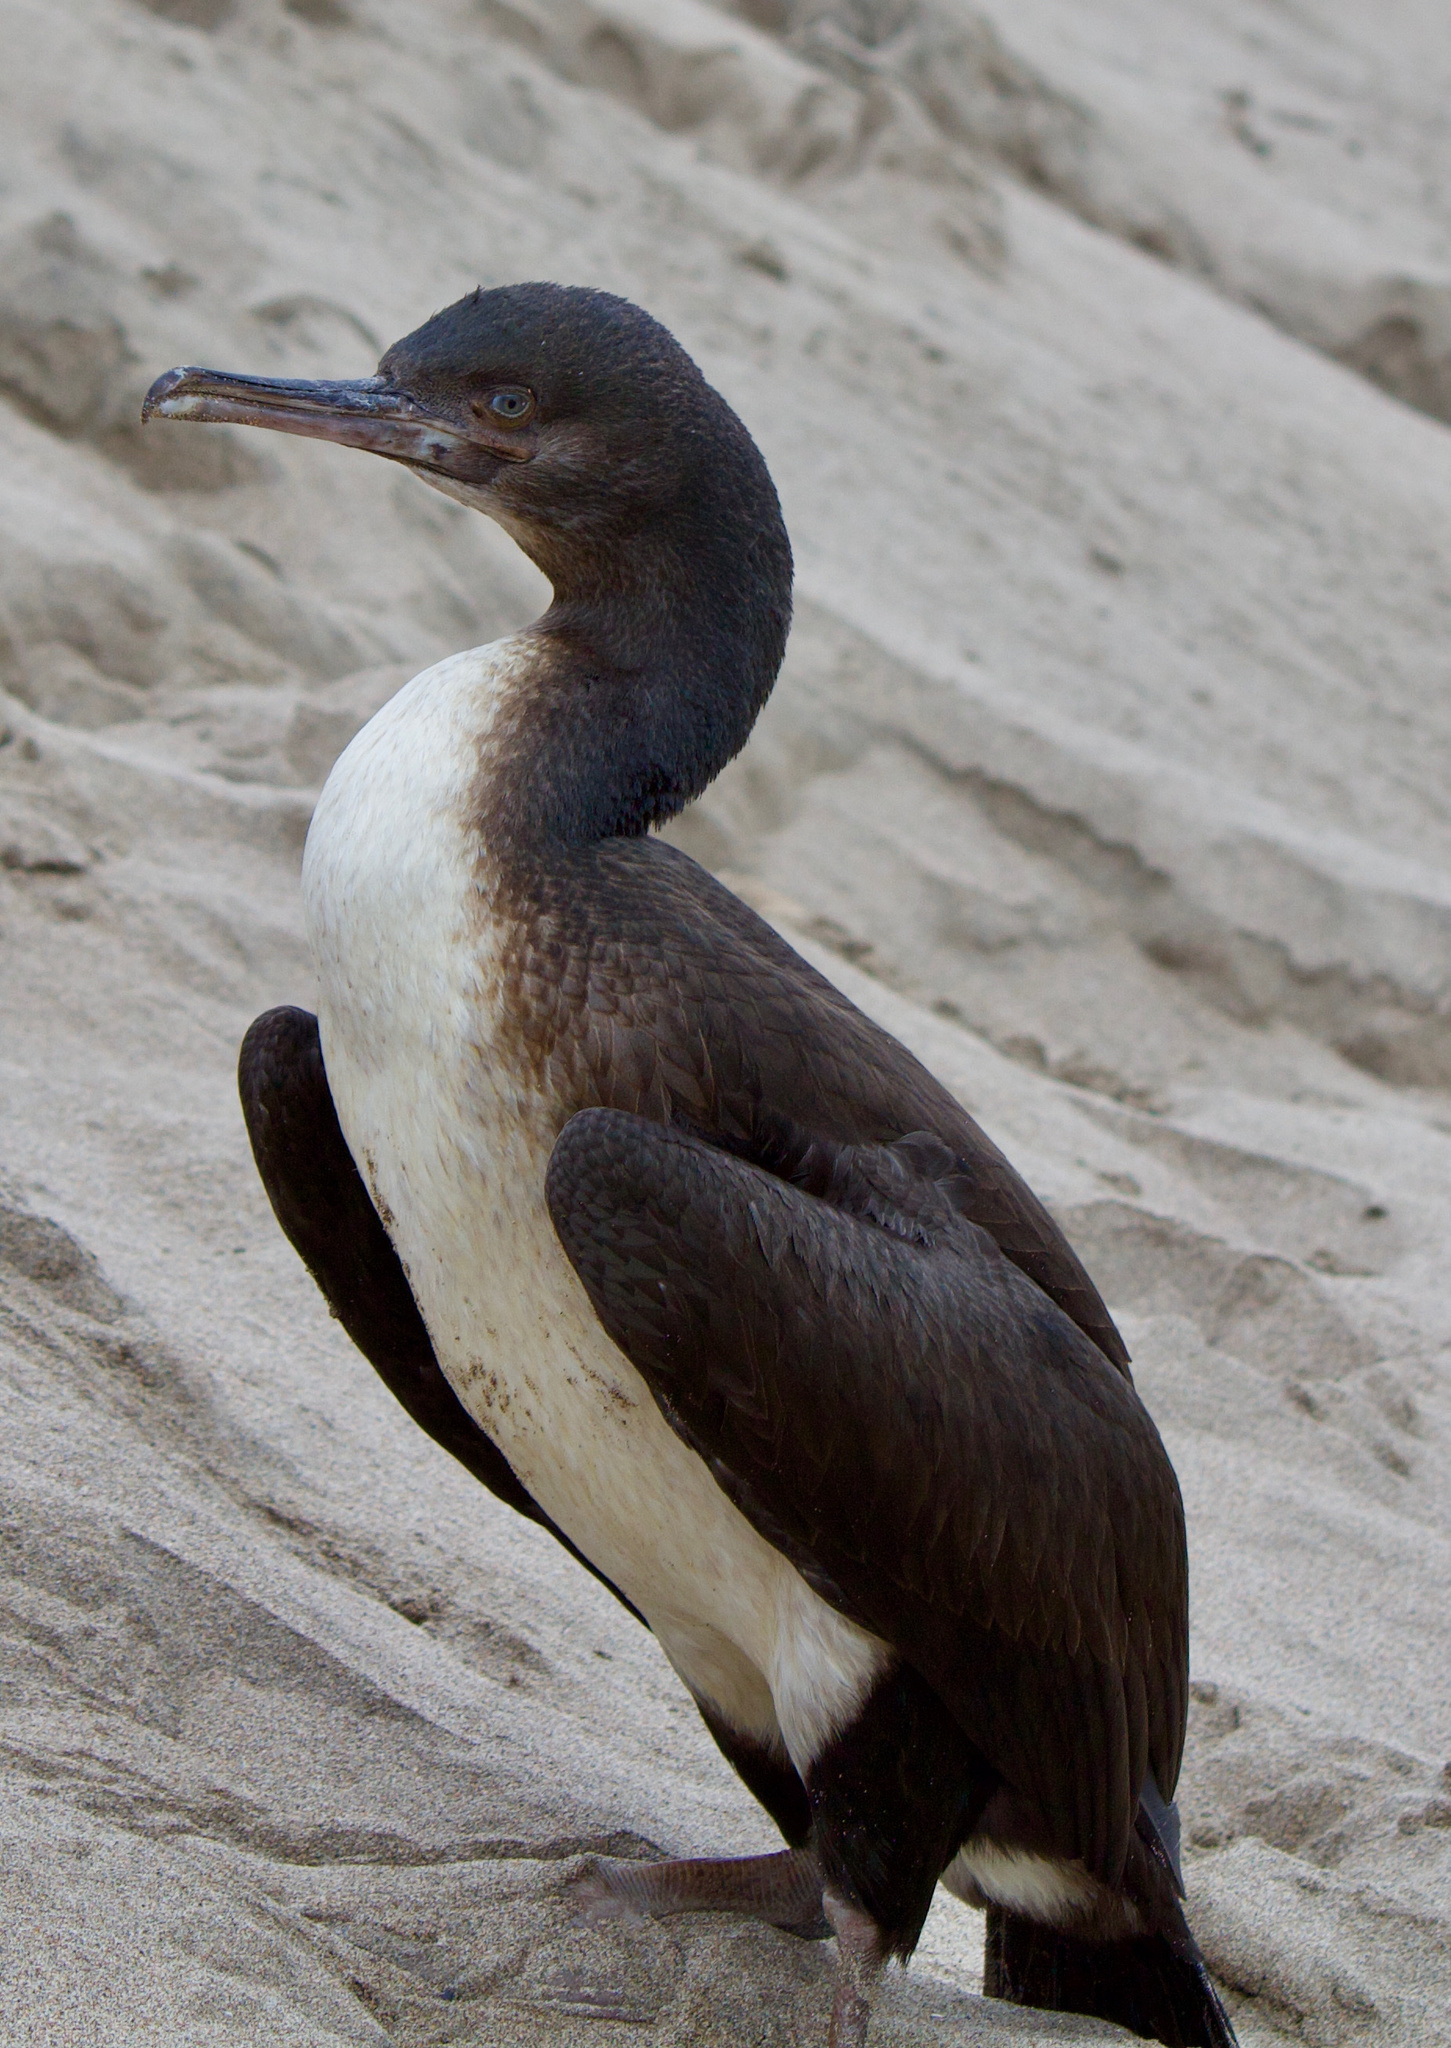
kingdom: Animalia
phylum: Chordata
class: Aves
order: Suliformes
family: Phalacrocoracidae
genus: Leucocarbo
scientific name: Leucocarbo bougainvillii
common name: Guanay cormorant
